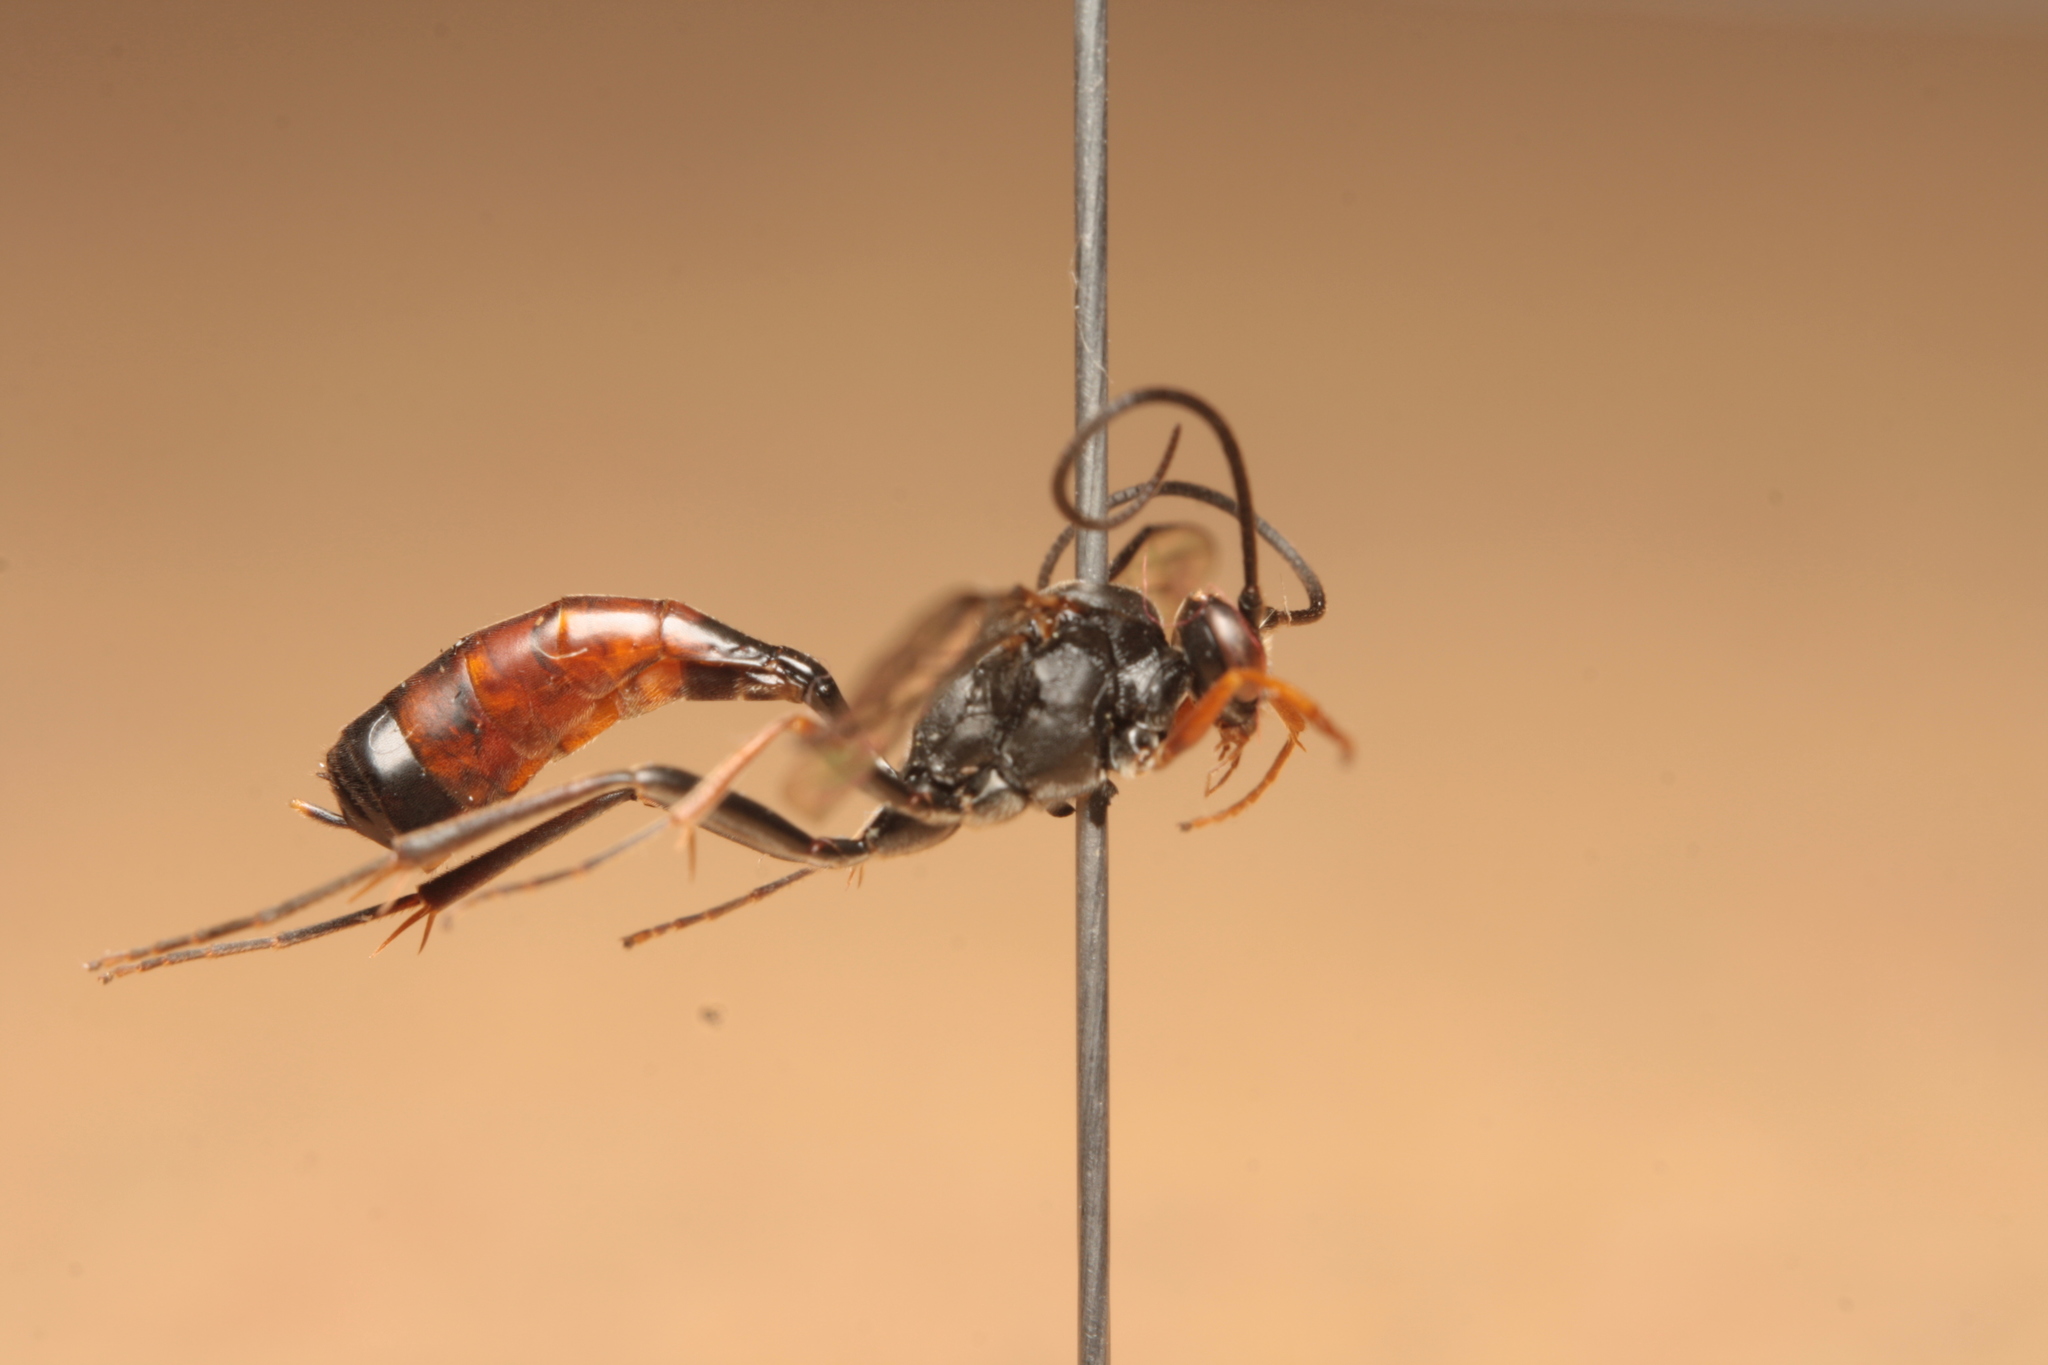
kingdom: Animalia
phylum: Arthropoda
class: Insecta
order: Hymenoptera
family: Ichneumonidae
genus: Dusona
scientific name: Dusona bicoloripes
